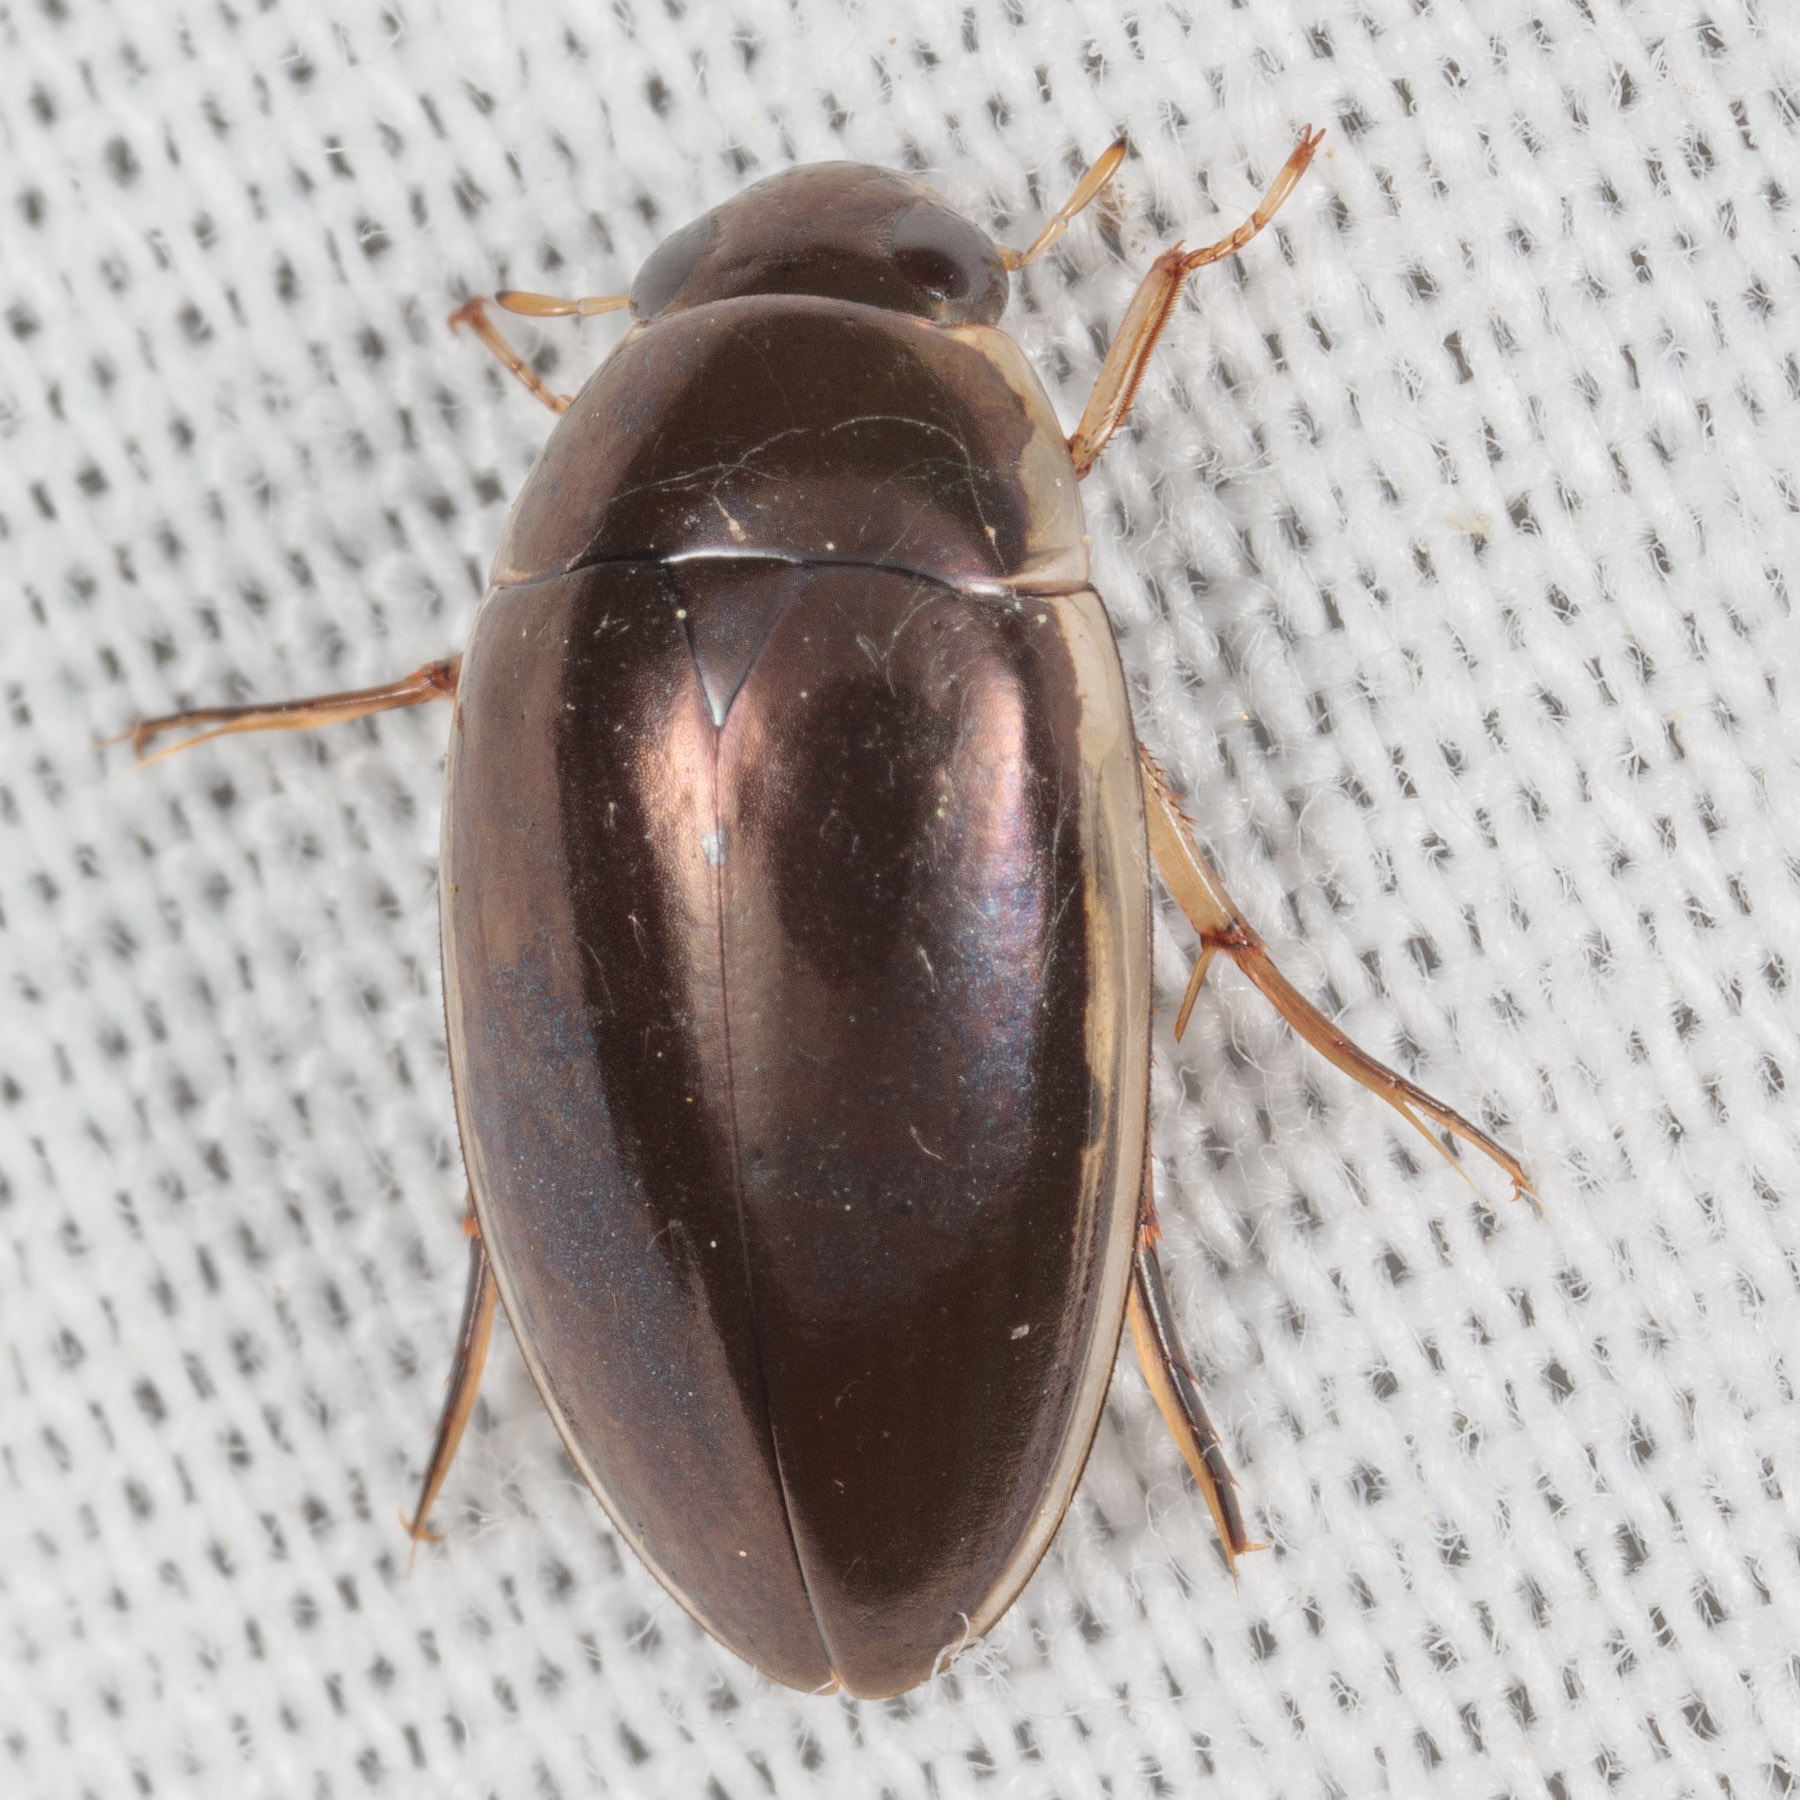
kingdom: Animalia
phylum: Arthropoda
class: Insecta
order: Coleoptera
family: Hydrophilidae
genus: Tropisternus
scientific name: Tropisternus lateralis
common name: Lateral-banded water scavenger beetle
